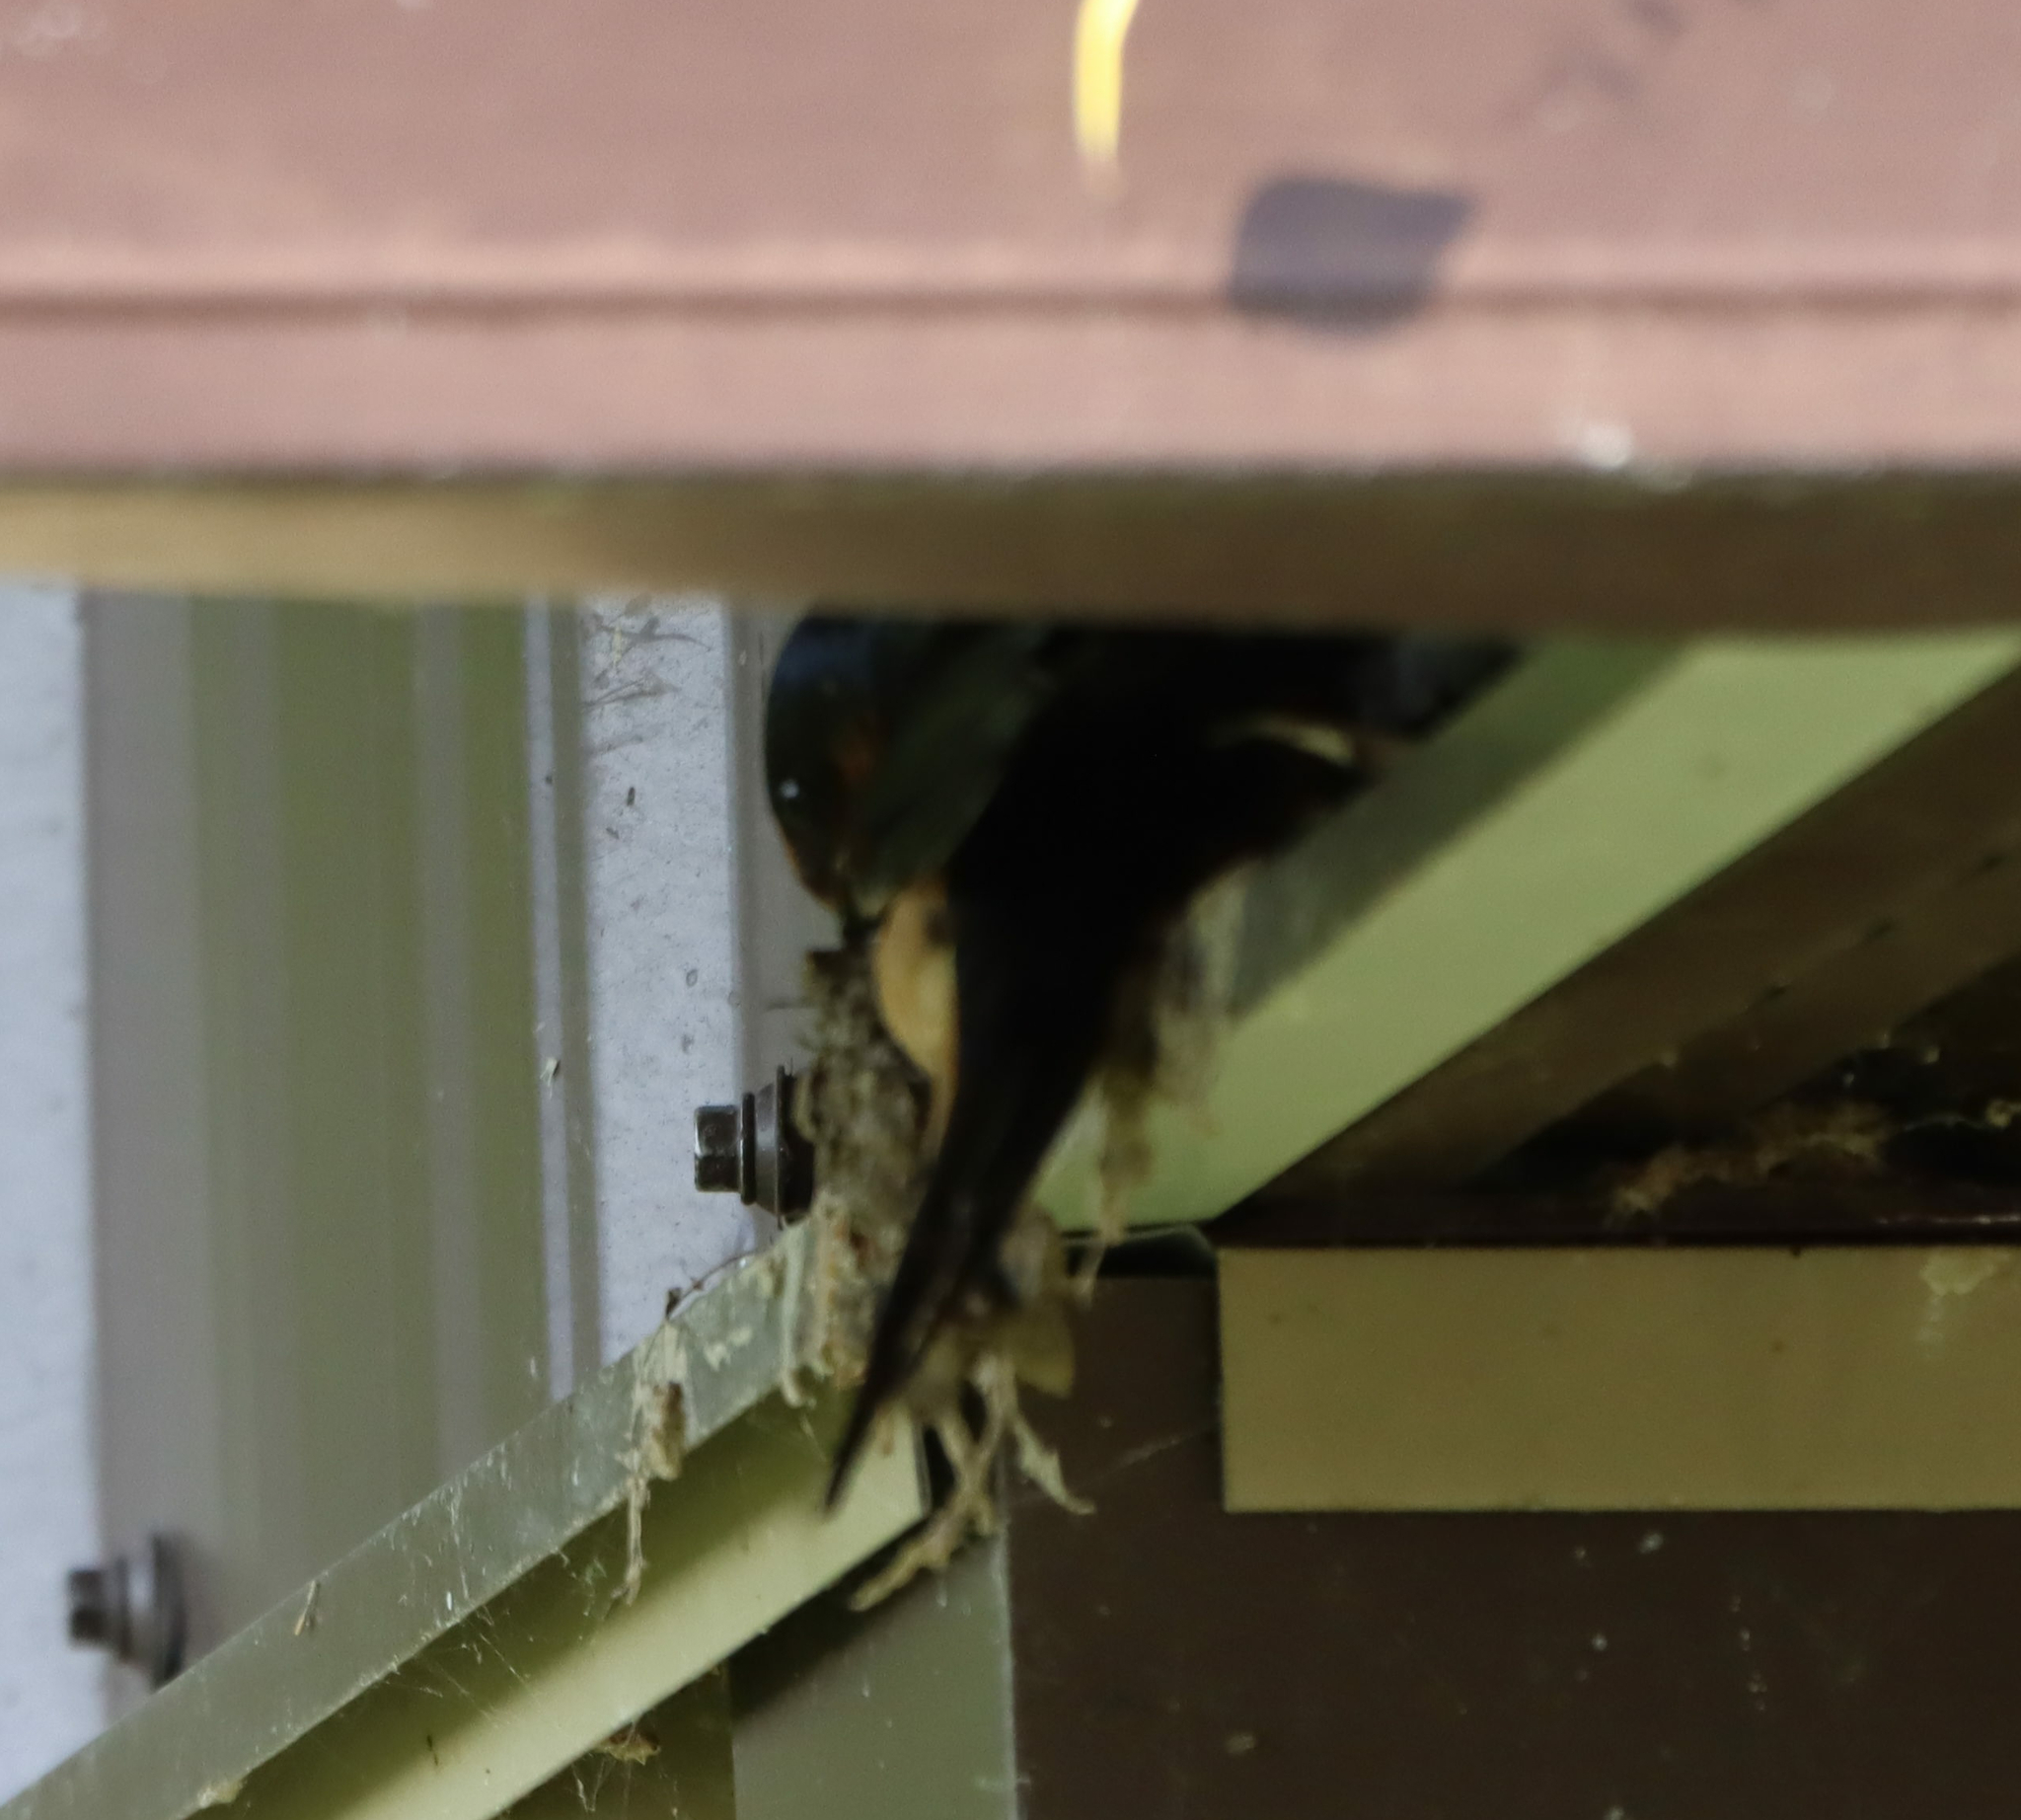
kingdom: Animalia
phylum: Chordata
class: Aves
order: Passeriformes
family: Hirundinidae
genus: Hirundo
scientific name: Hirundo rustica
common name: Barn swallow
